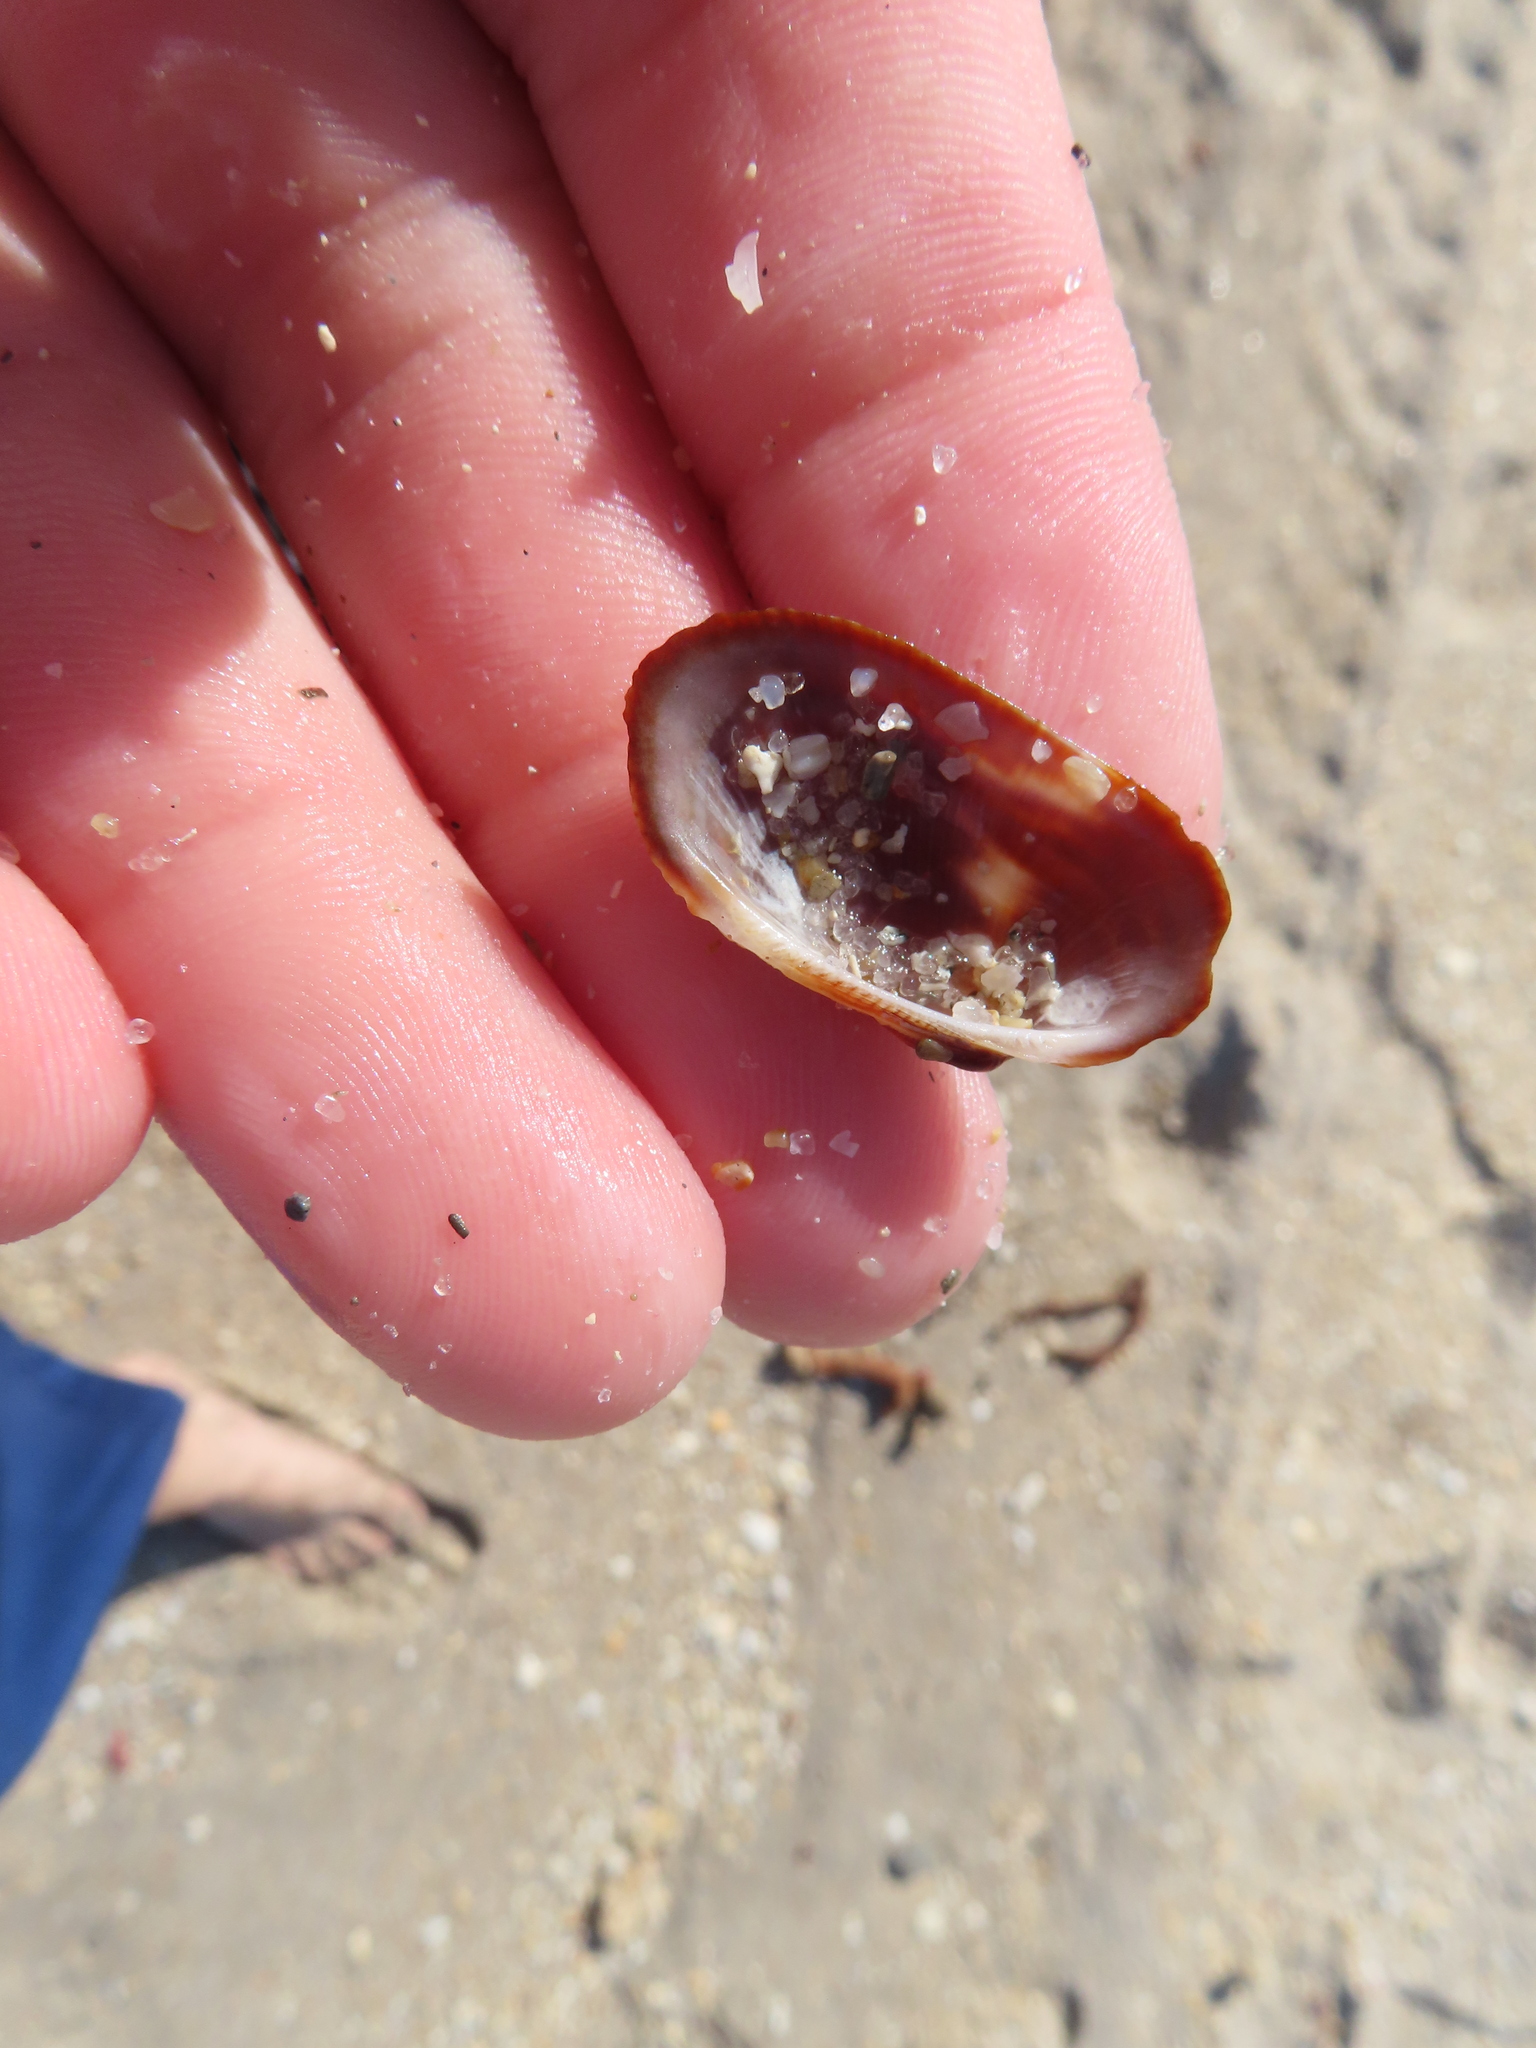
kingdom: Animalia
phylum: Mollusca
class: Bivalvia
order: Arcida
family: Arcidae
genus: Barbatia
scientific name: Barbatia domingensis
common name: White miniature ark
